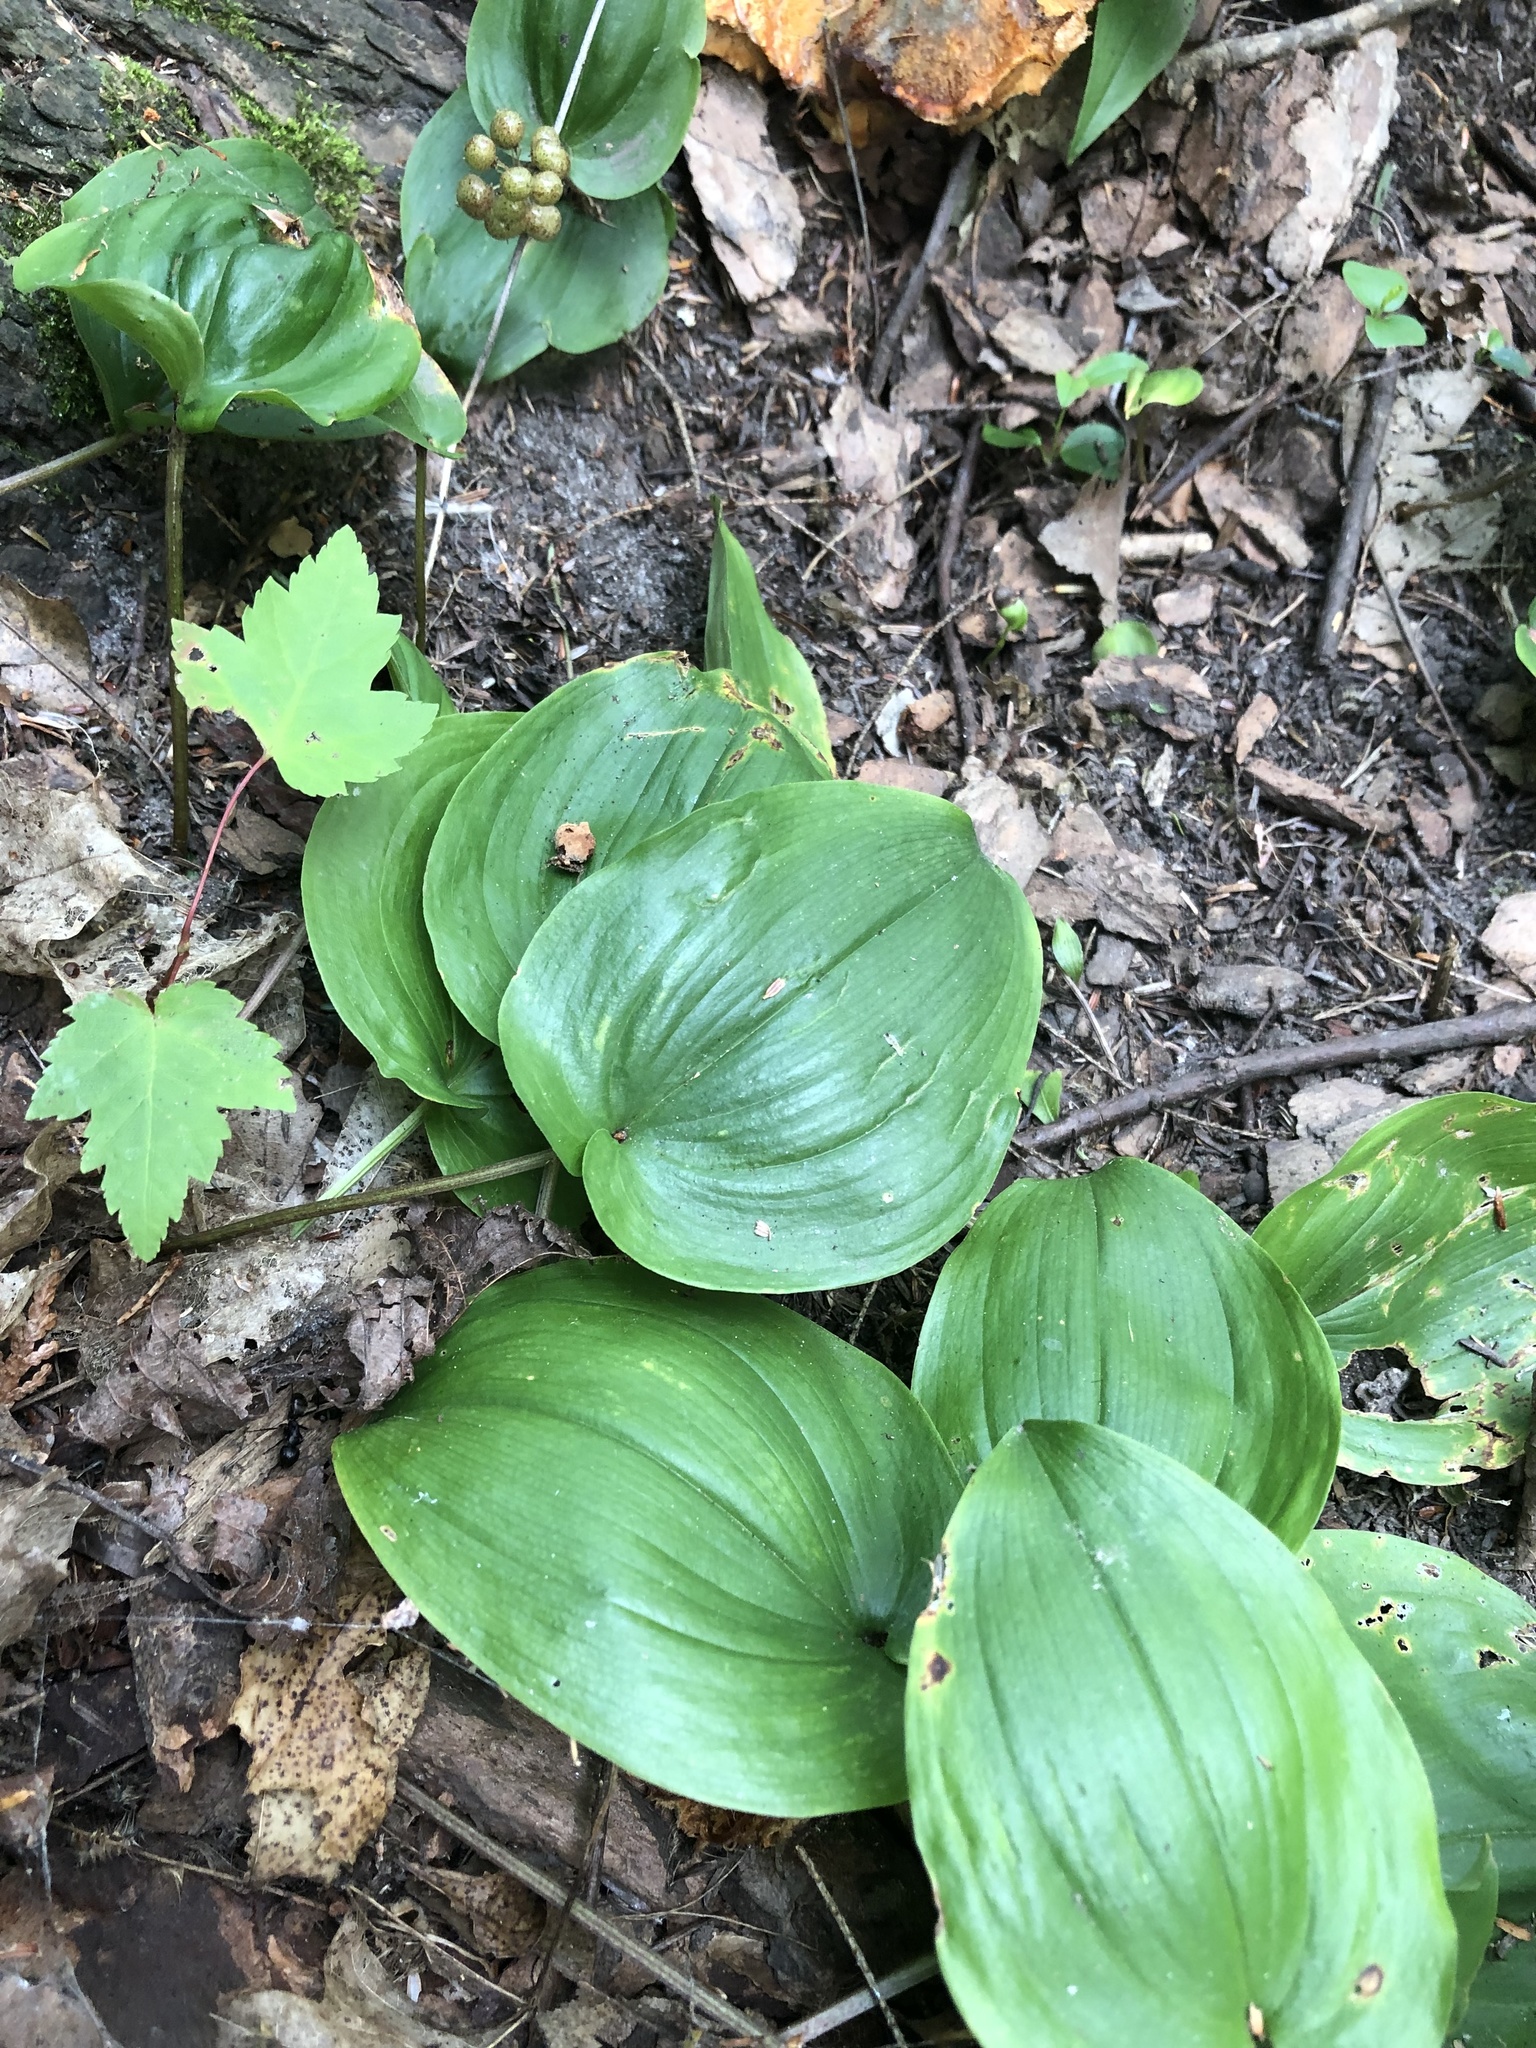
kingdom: Plantae
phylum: Tracheophyta
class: Liliopsida
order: Asparagales
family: Asparagaceae
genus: Maianthemum
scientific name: Maianthemum canadense
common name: False lily-of-the-valley
